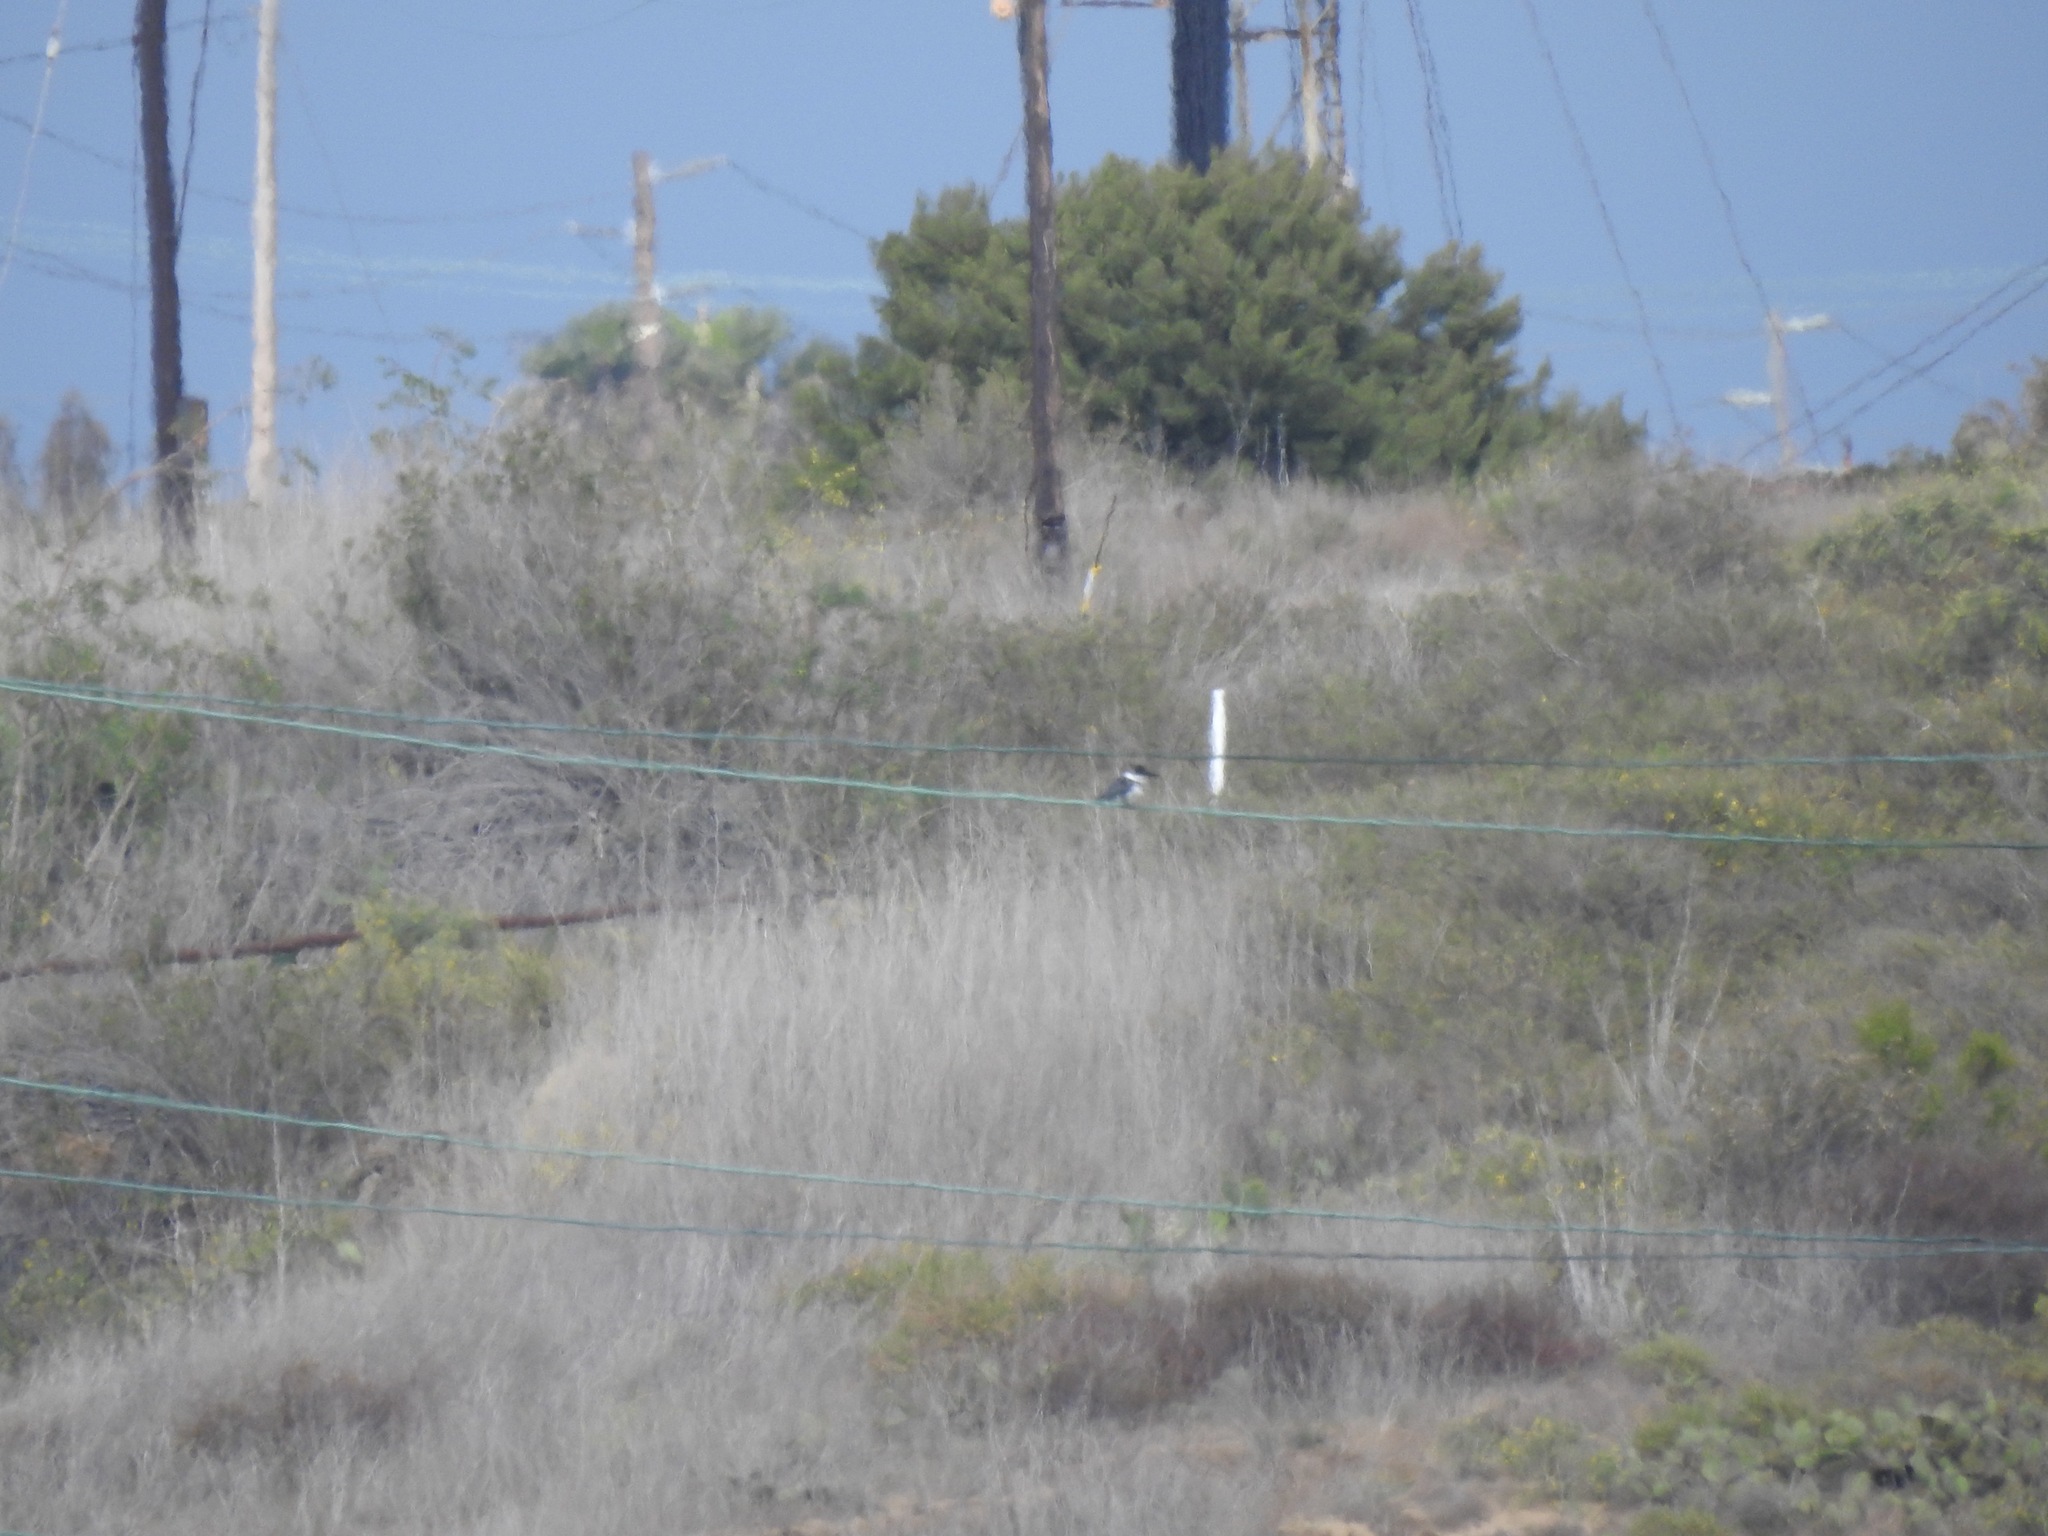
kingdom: Animalia
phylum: Chordata
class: Aves
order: Coraciiformes
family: Alcedinidae
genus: Megaceryle
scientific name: Megaceryle alcyon
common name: Belted kingfisher
